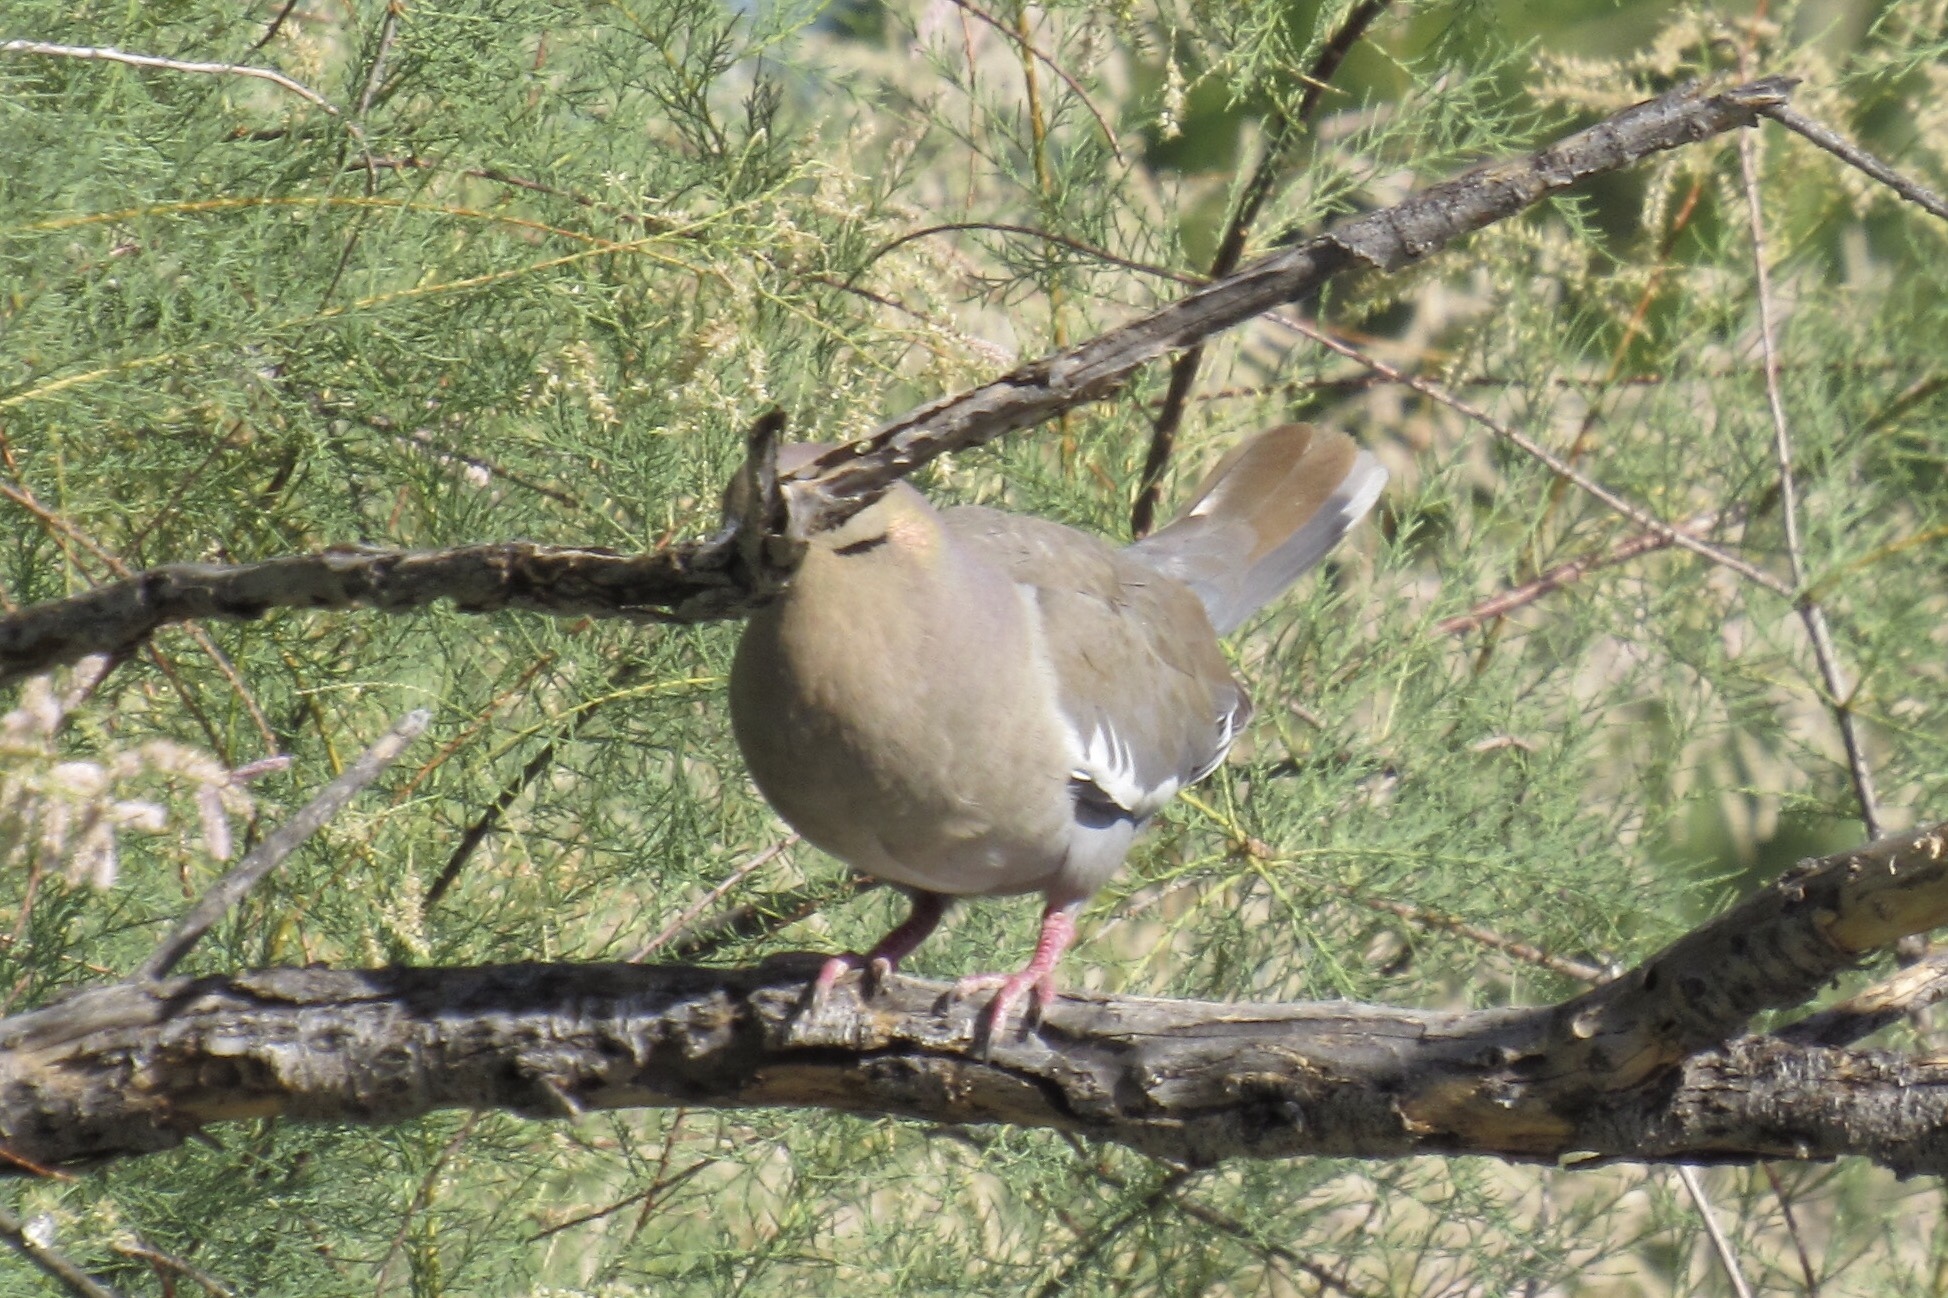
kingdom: Animalia
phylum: Chordata
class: Aves
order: Columbiformes
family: Columbidae
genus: Zenaida
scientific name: Zenaida asiatica
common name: White-winged dove
